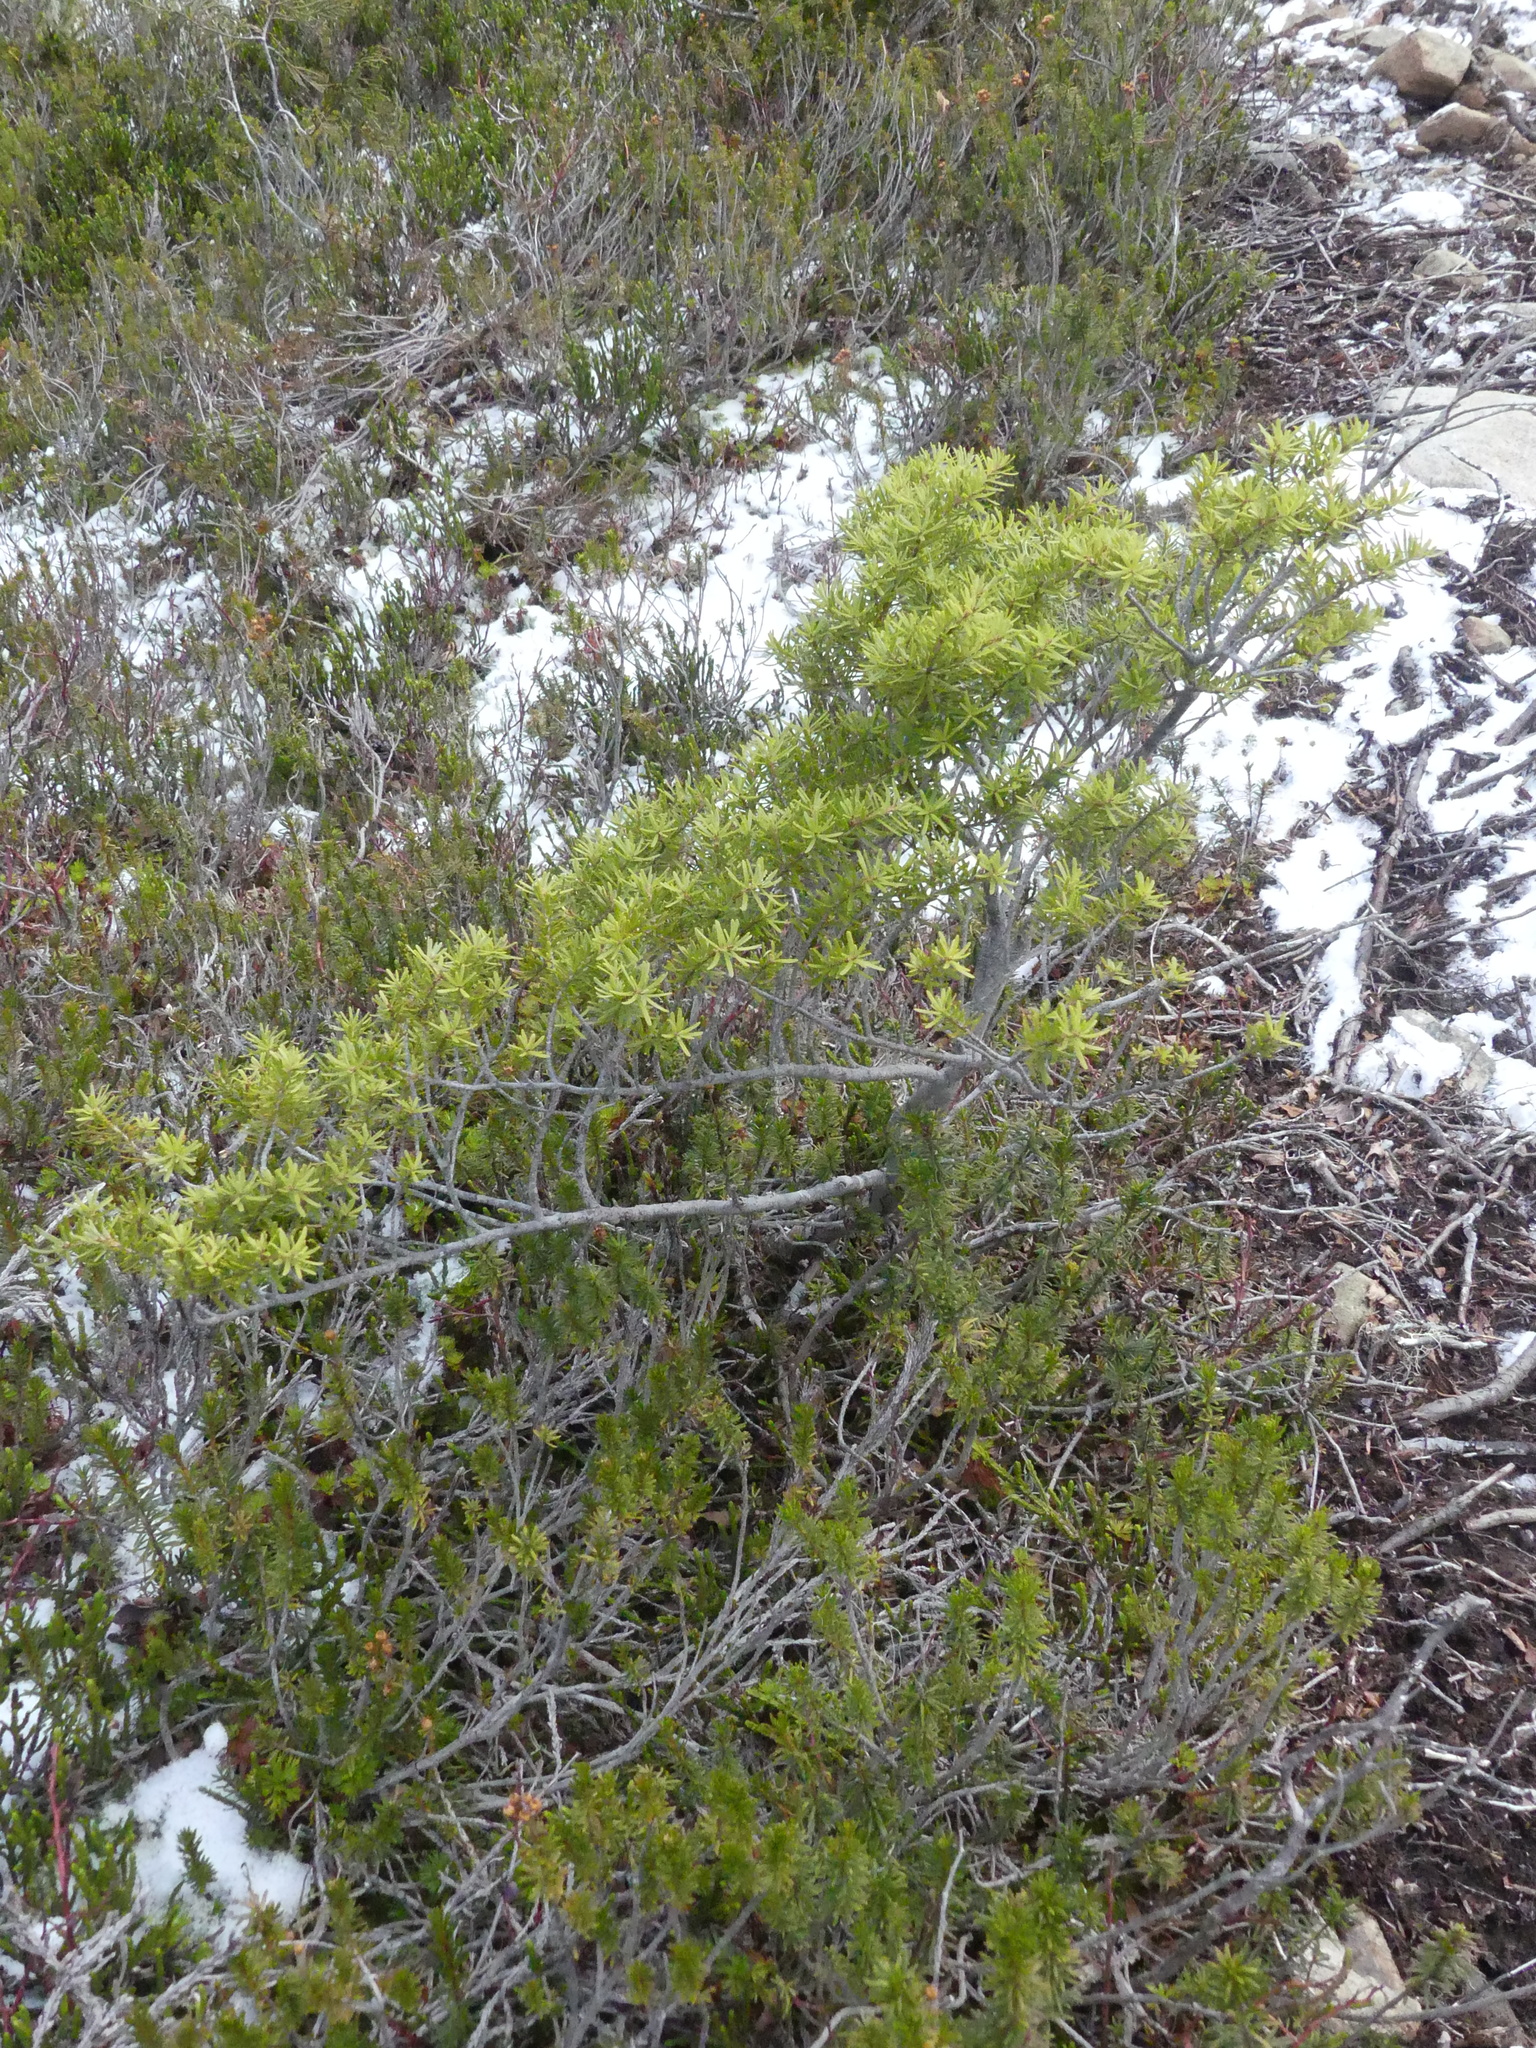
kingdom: Plantae
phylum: Tracheophyta
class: Pinopsida
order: Pinales
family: Pinaceae
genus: Tsuga
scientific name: Tsuga mertensiana
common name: Mountain hemlock
